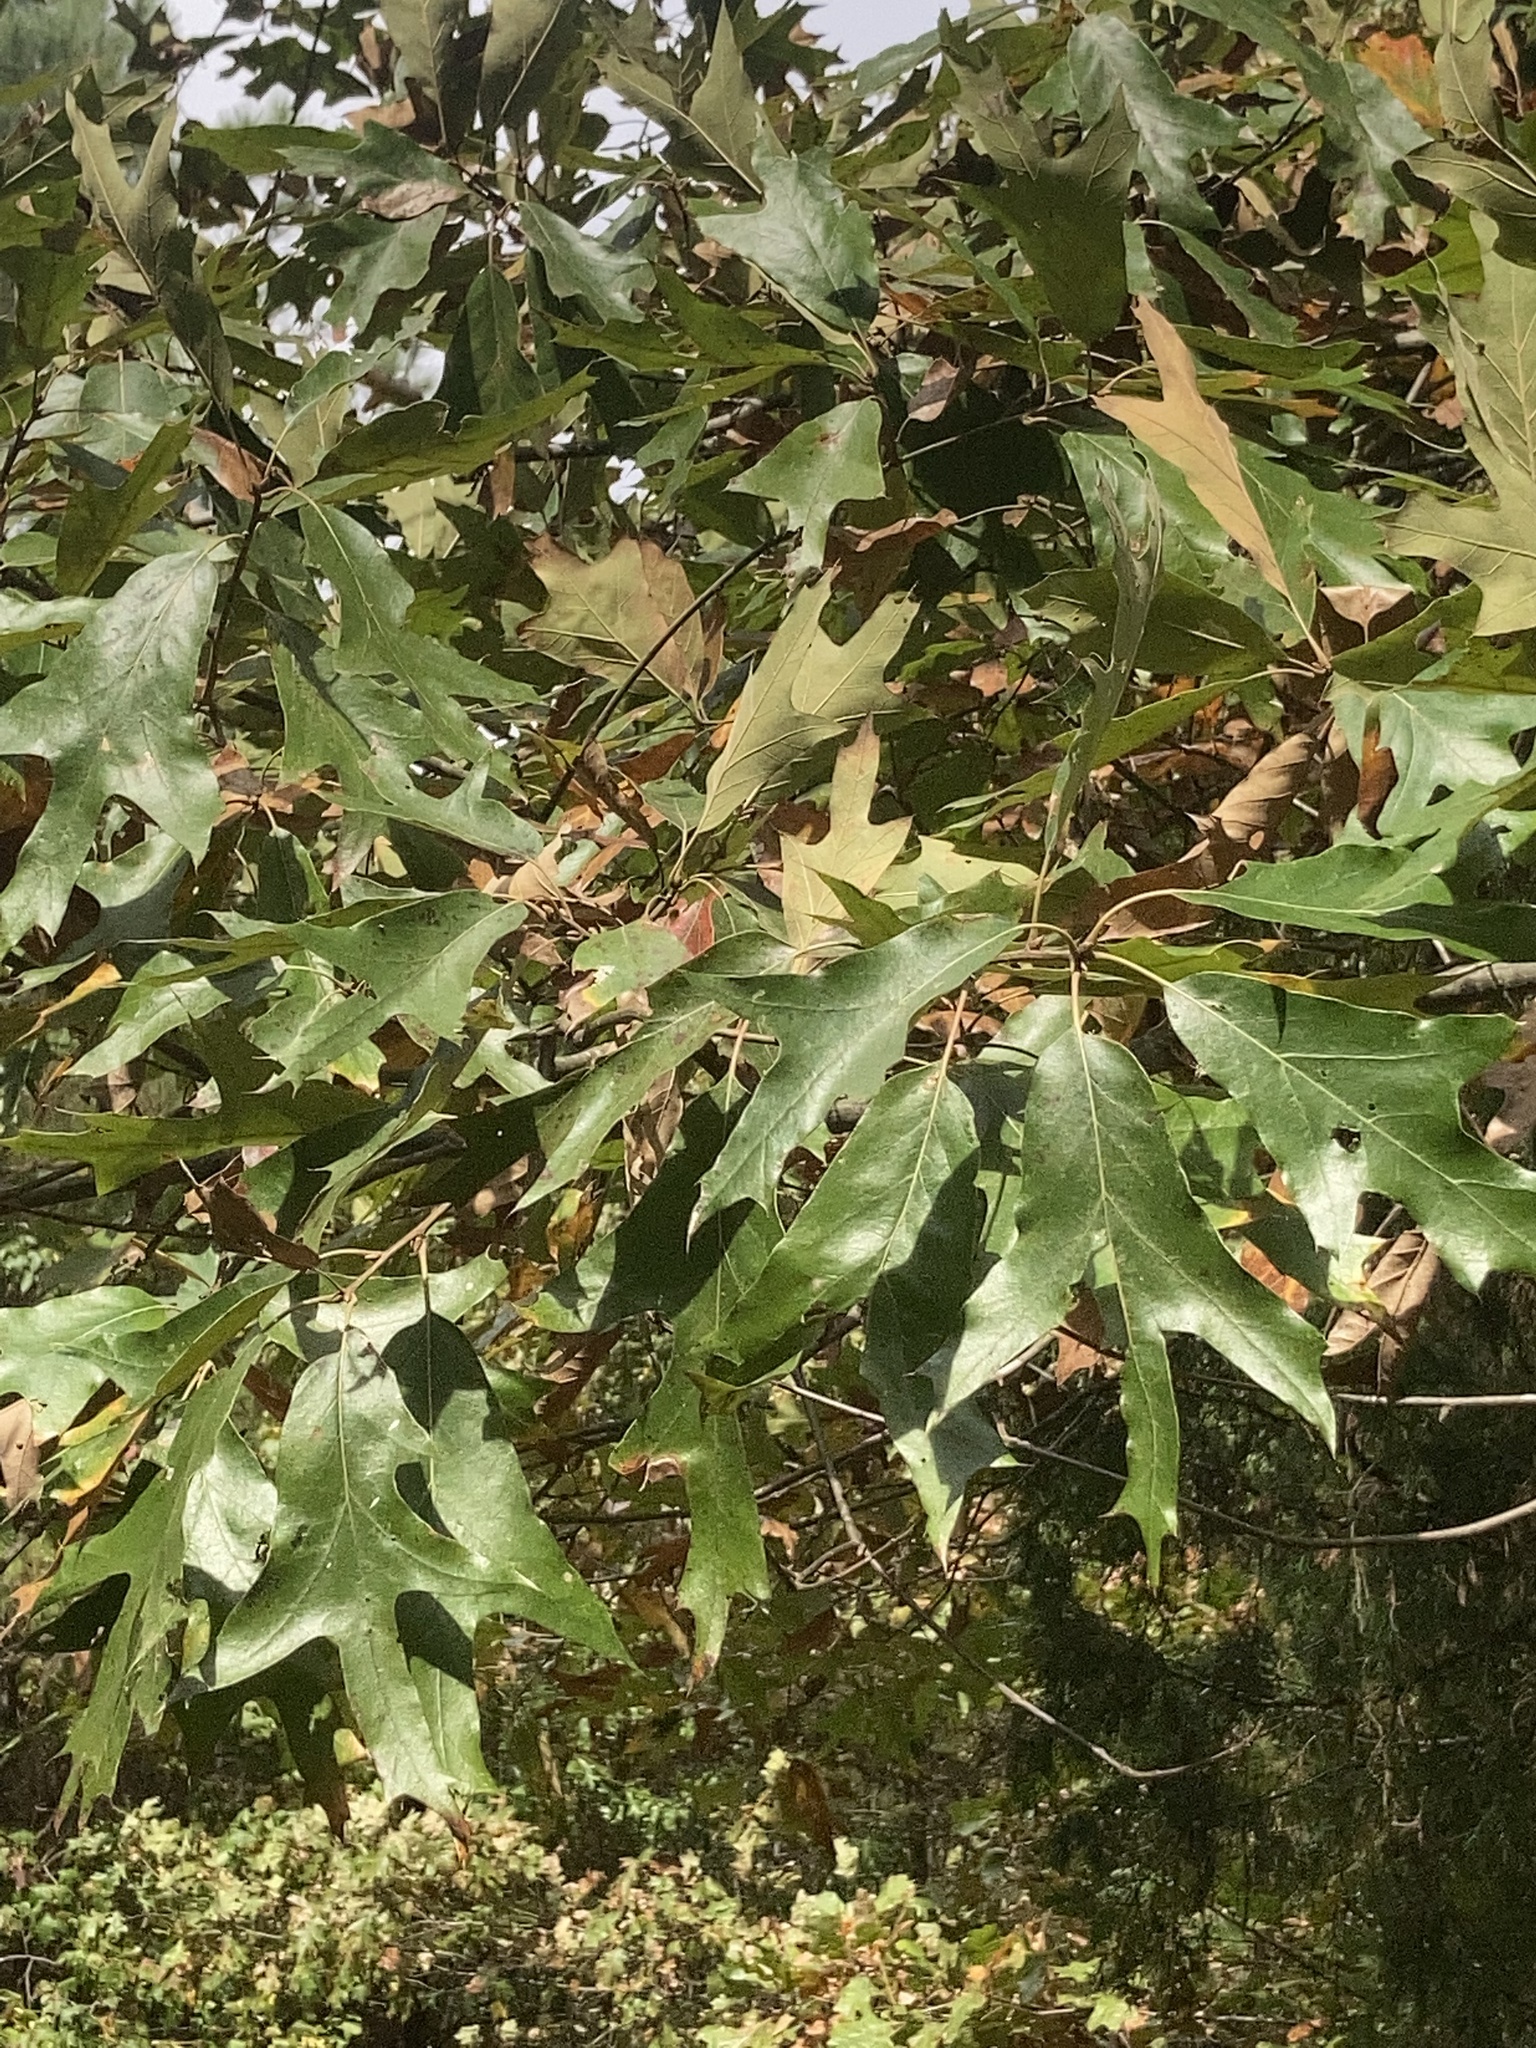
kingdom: Plantae
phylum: Tracheophyta
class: Magnoliopsida
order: Fagales
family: Fagaceae
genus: Quercus
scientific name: Quercus falcata
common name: Southern red oak
